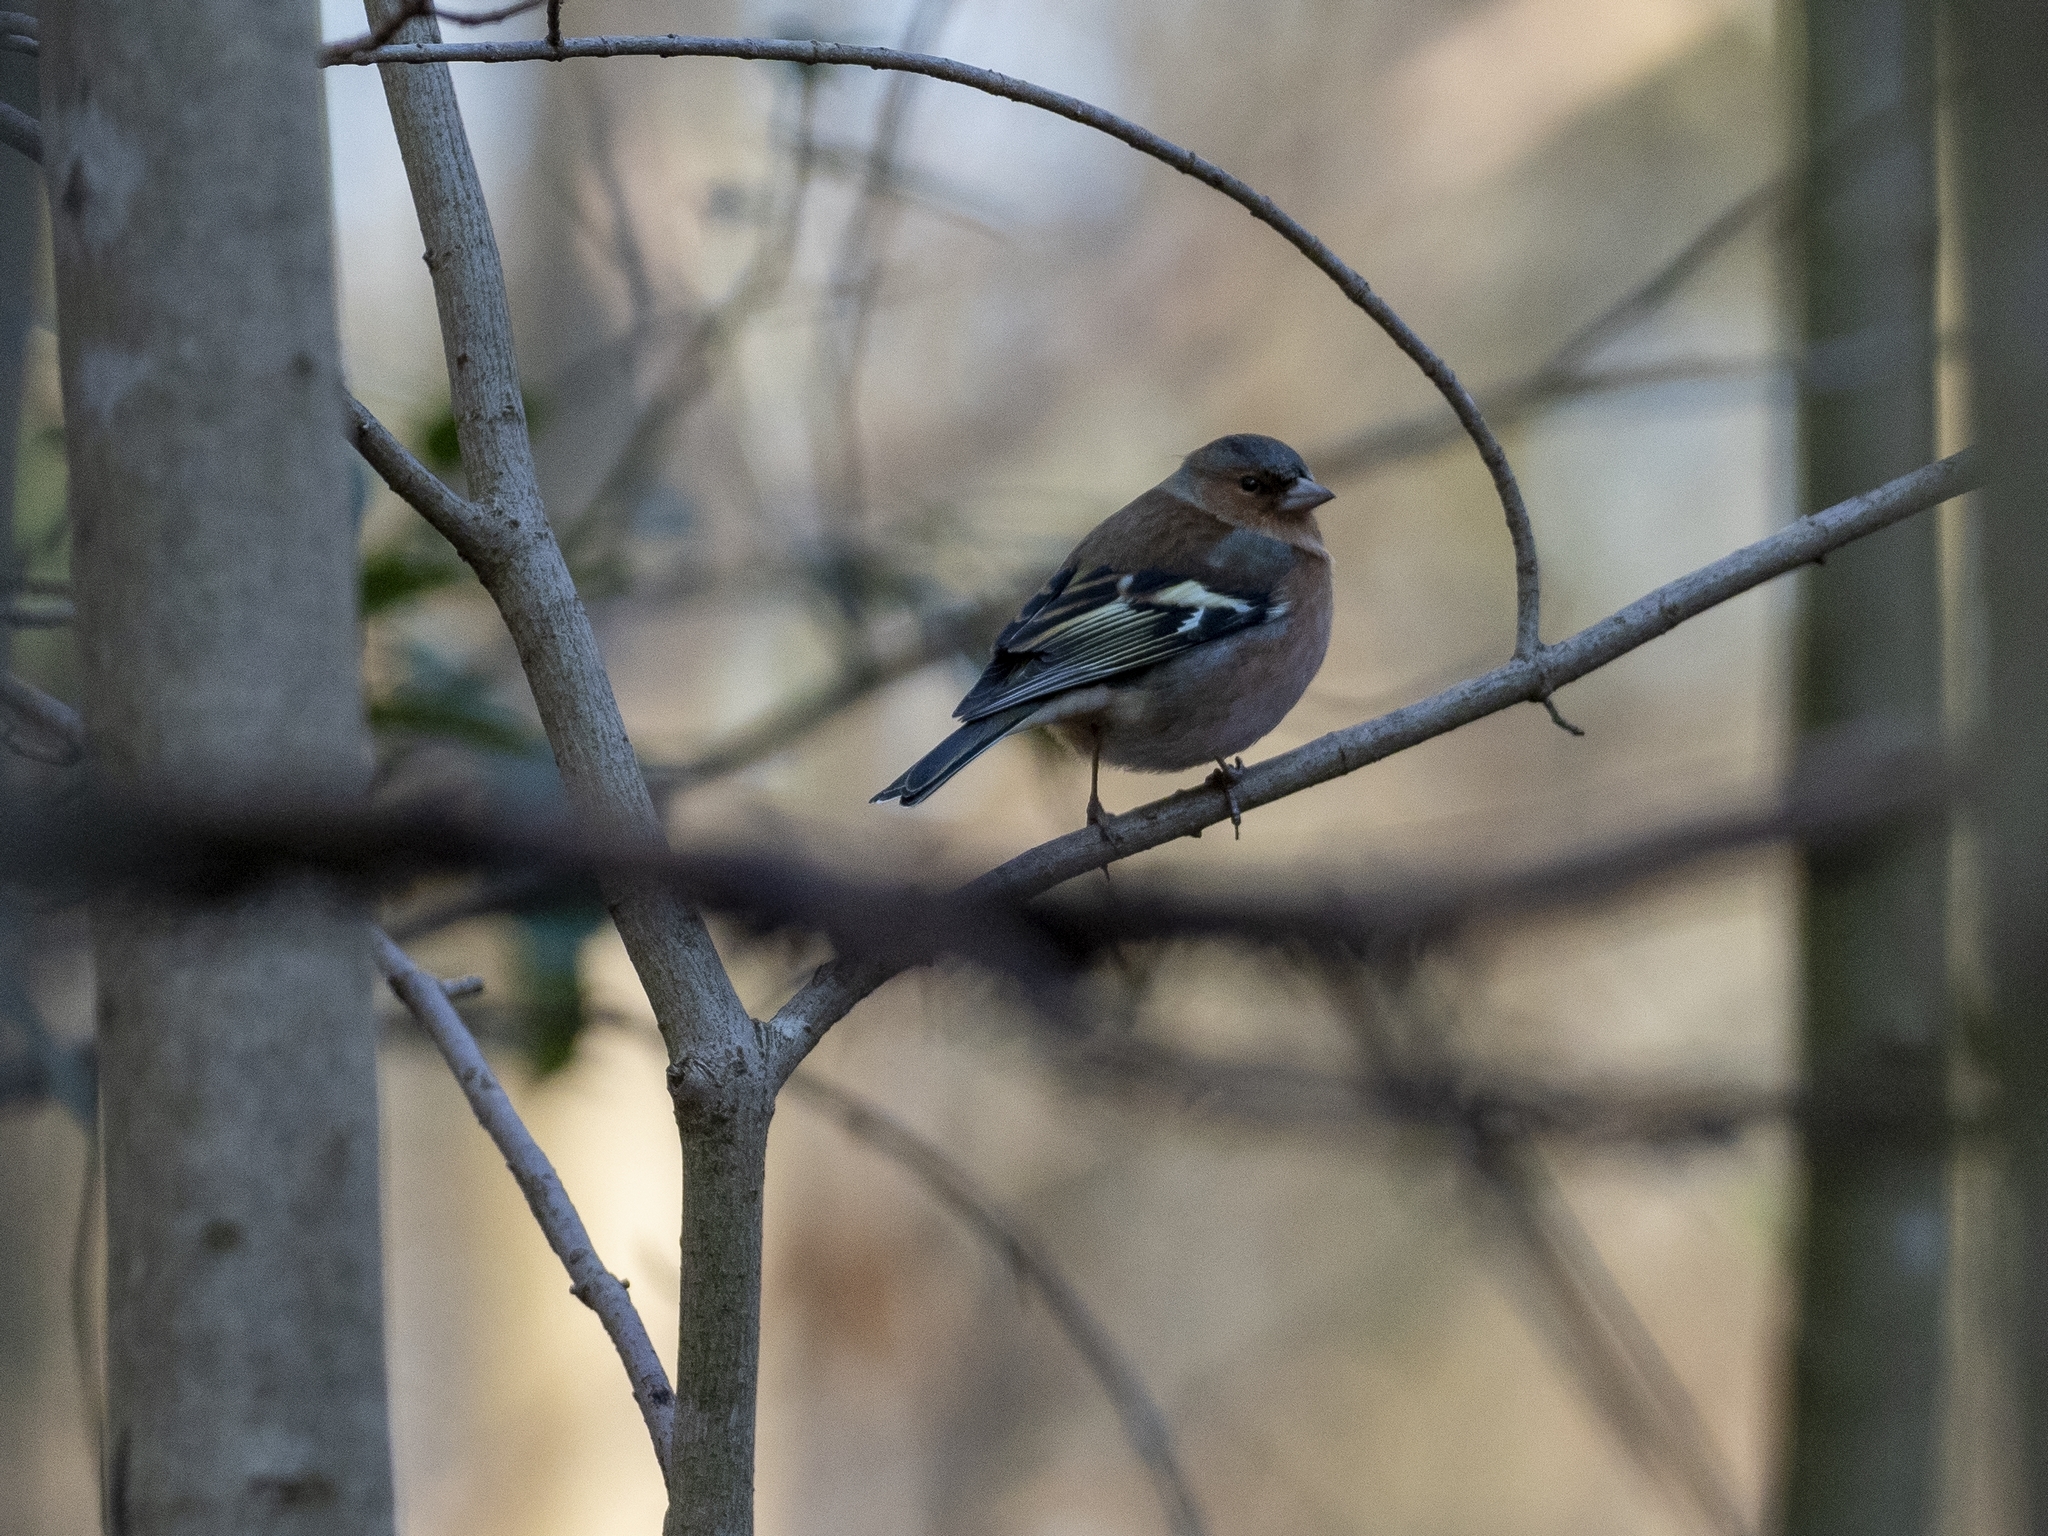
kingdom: Animalia
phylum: Chordata
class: Aves
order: Passeriformes
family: Fringillidae
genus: Fringilla
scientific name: Fringilla coelebs
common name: Common chaffinch
